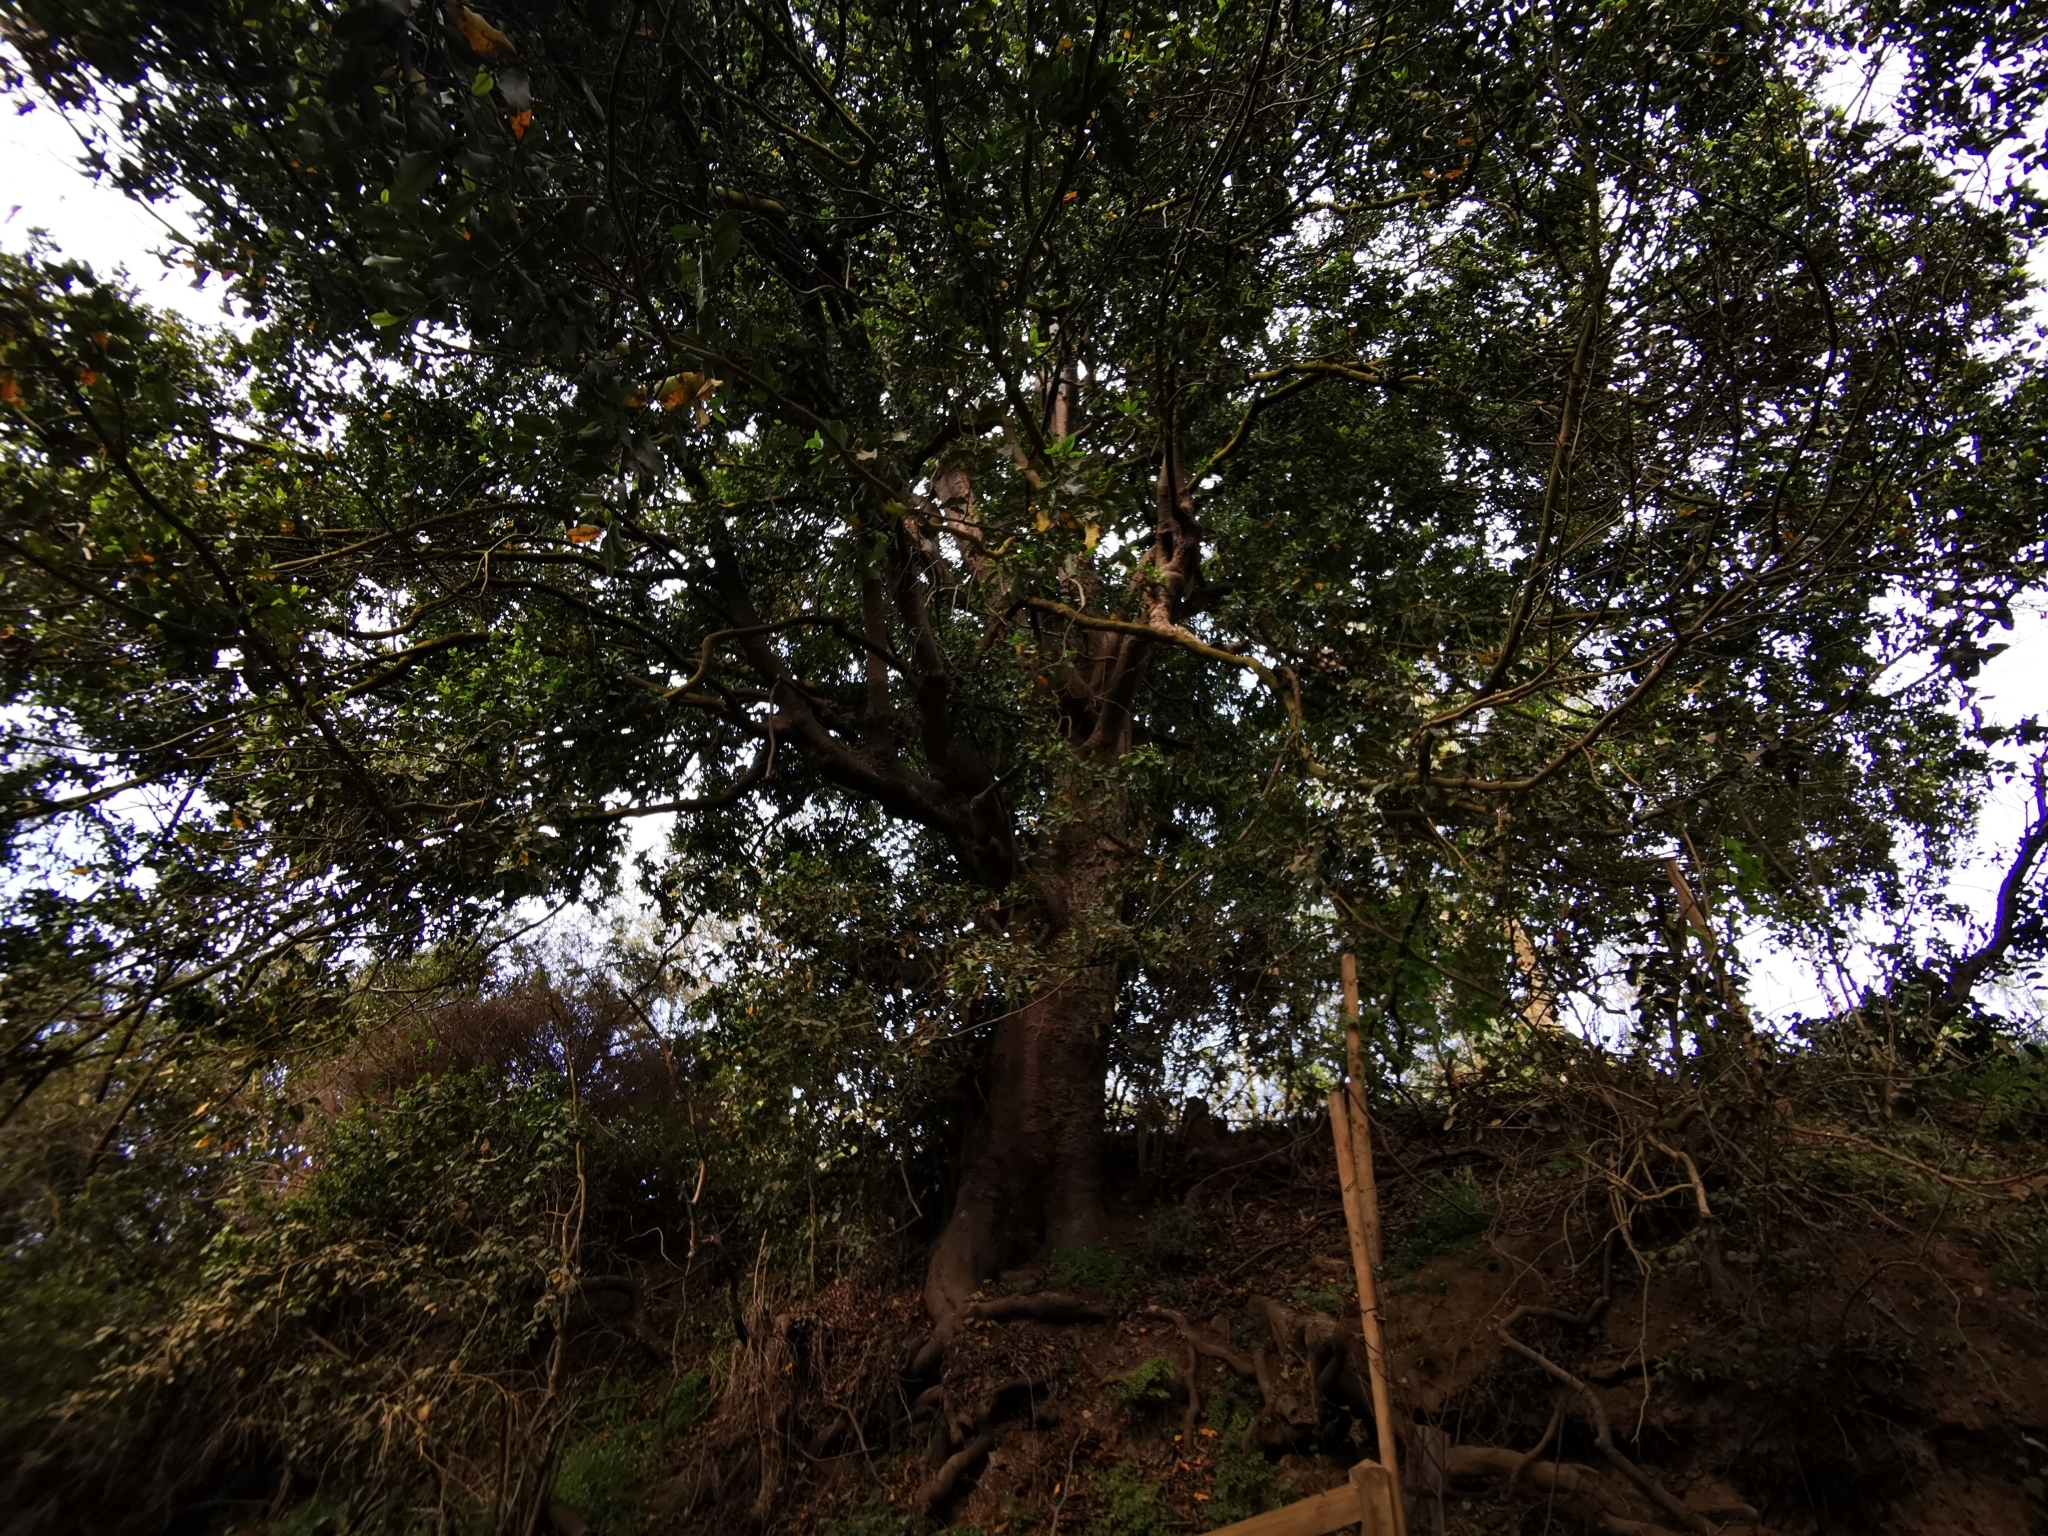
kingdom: Plantae
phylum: Tracheophyta
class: Magnoliopsida
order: Laurales
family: Lauraceae
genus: Beilschmiedia
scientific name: Beilschmiedia miersii
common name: Bellota
